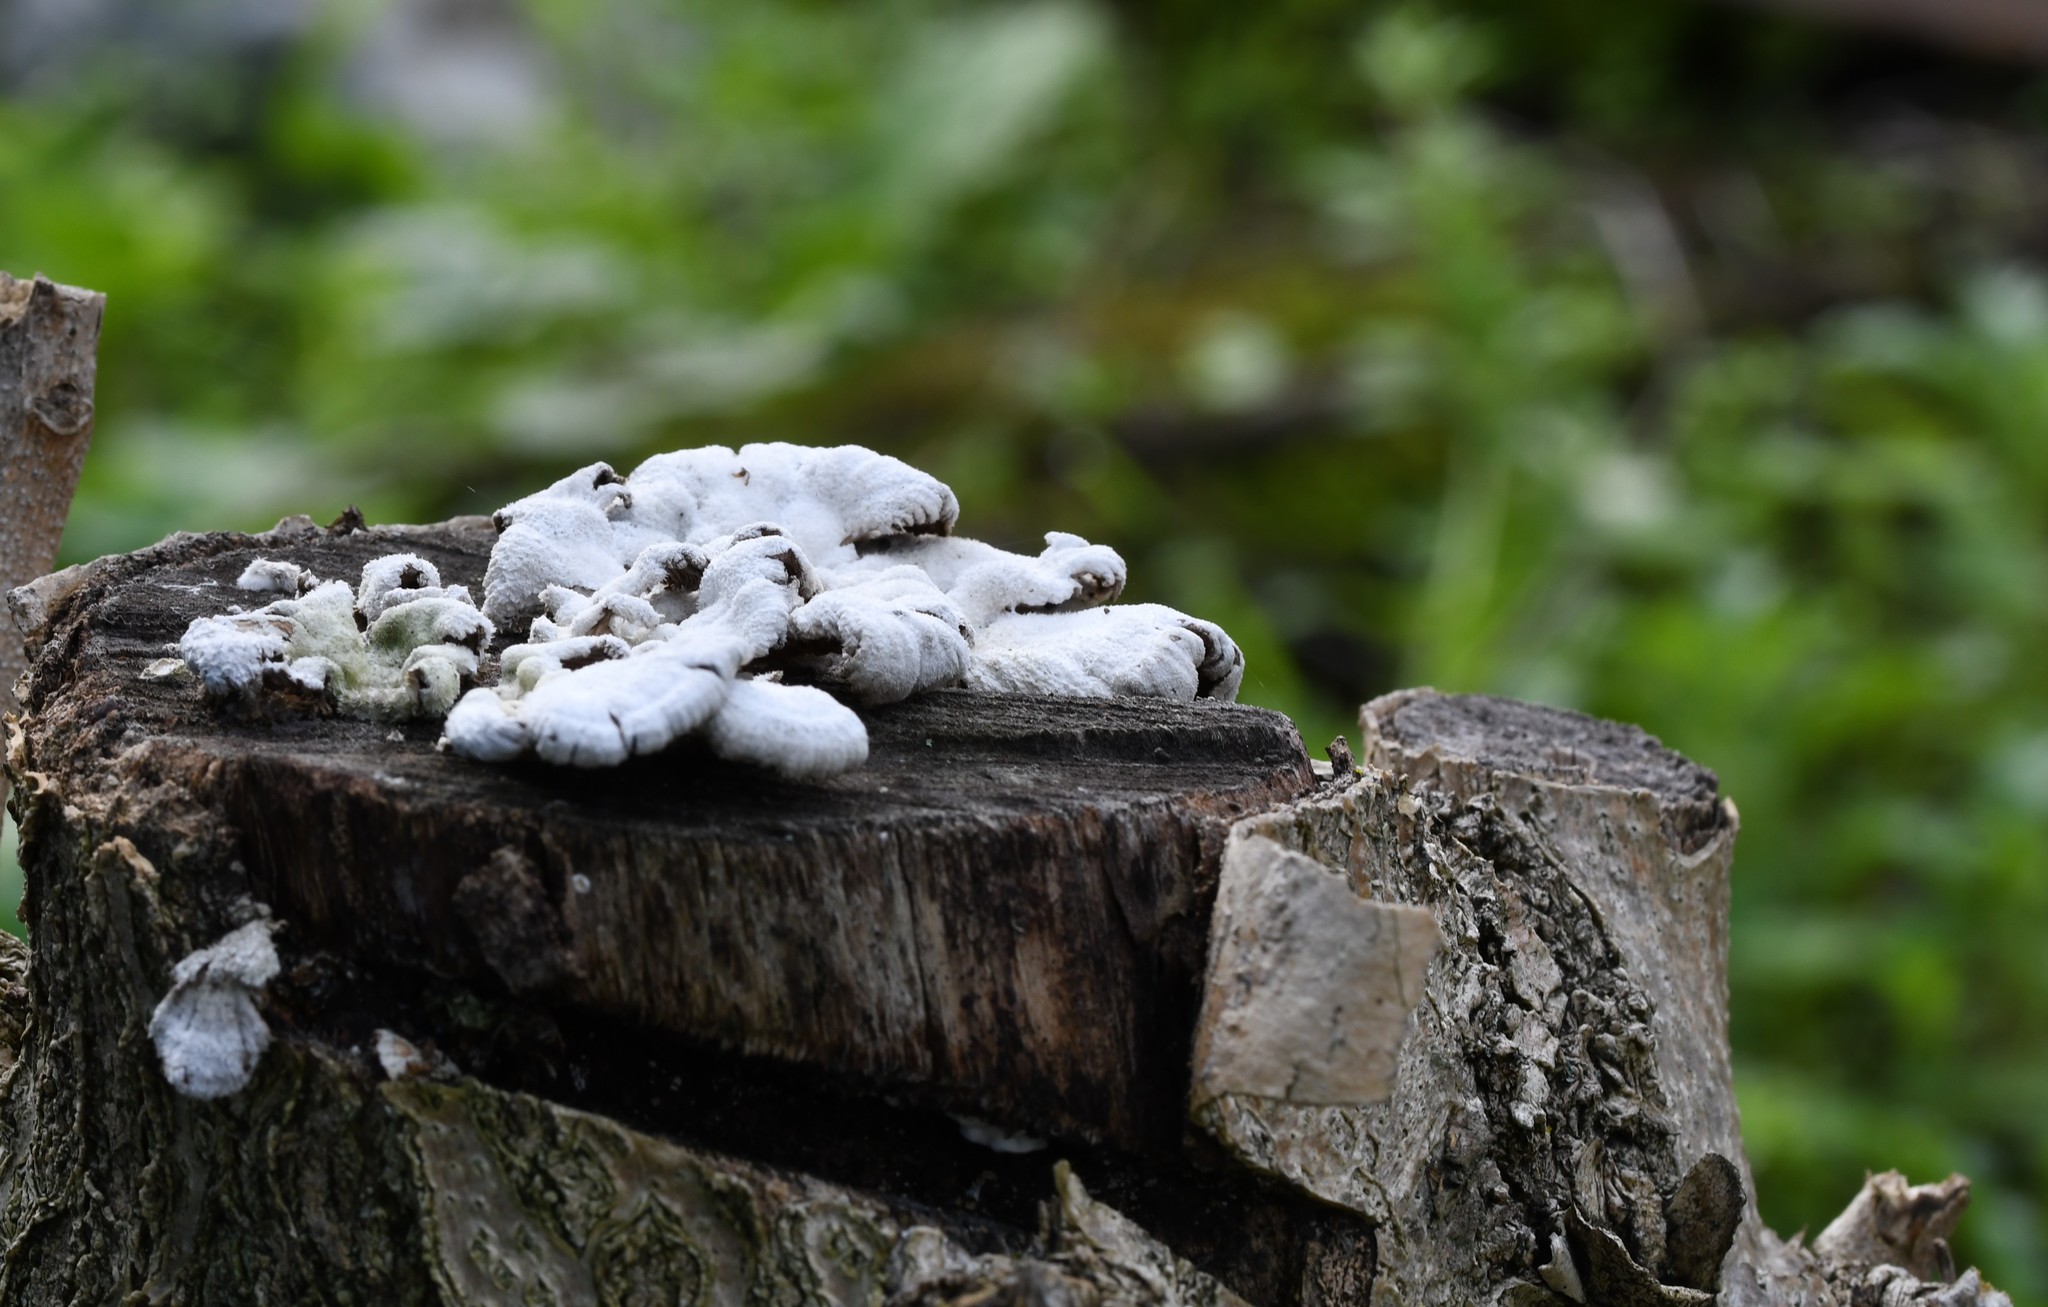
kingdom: Fungi
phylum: Basidiomycota
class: Agaricomycetes
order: Agaricales
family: Schizophyllaceae
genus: Schizophyllum
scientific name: Schizophyllum commune
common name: Common porecrust
